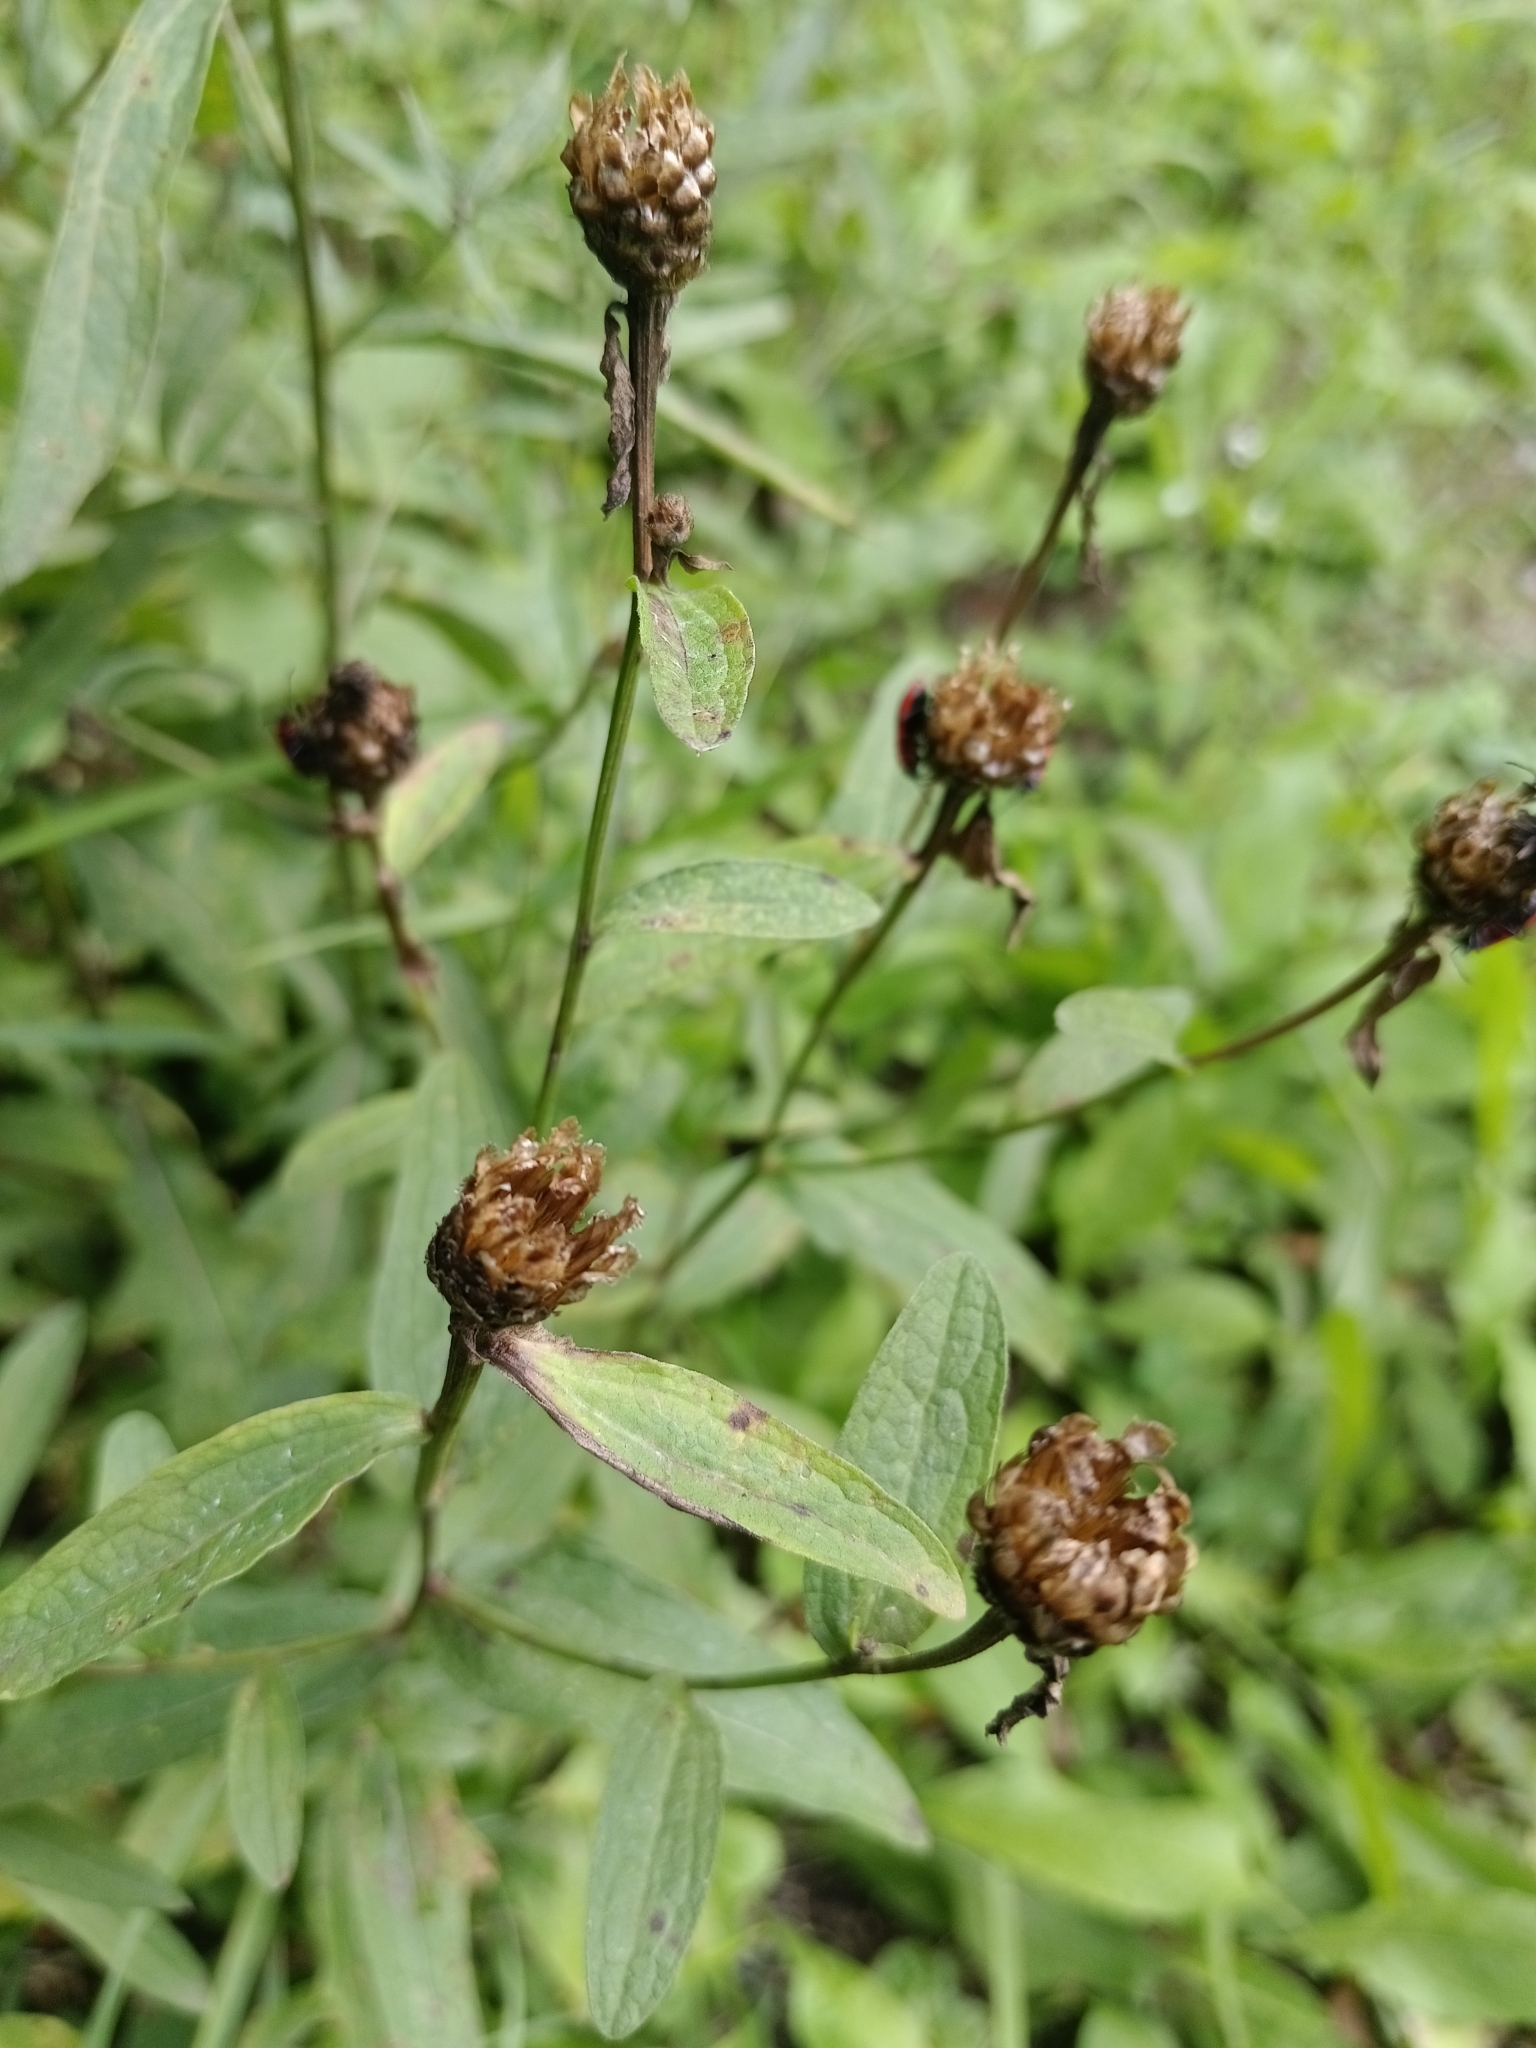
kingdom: Plantae
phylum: Tracheophyta
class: Magnoliopsida
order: Asterales
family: Asteraceae
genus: Centaurea
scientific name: Centaurea jacea
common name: Brown knapweed
